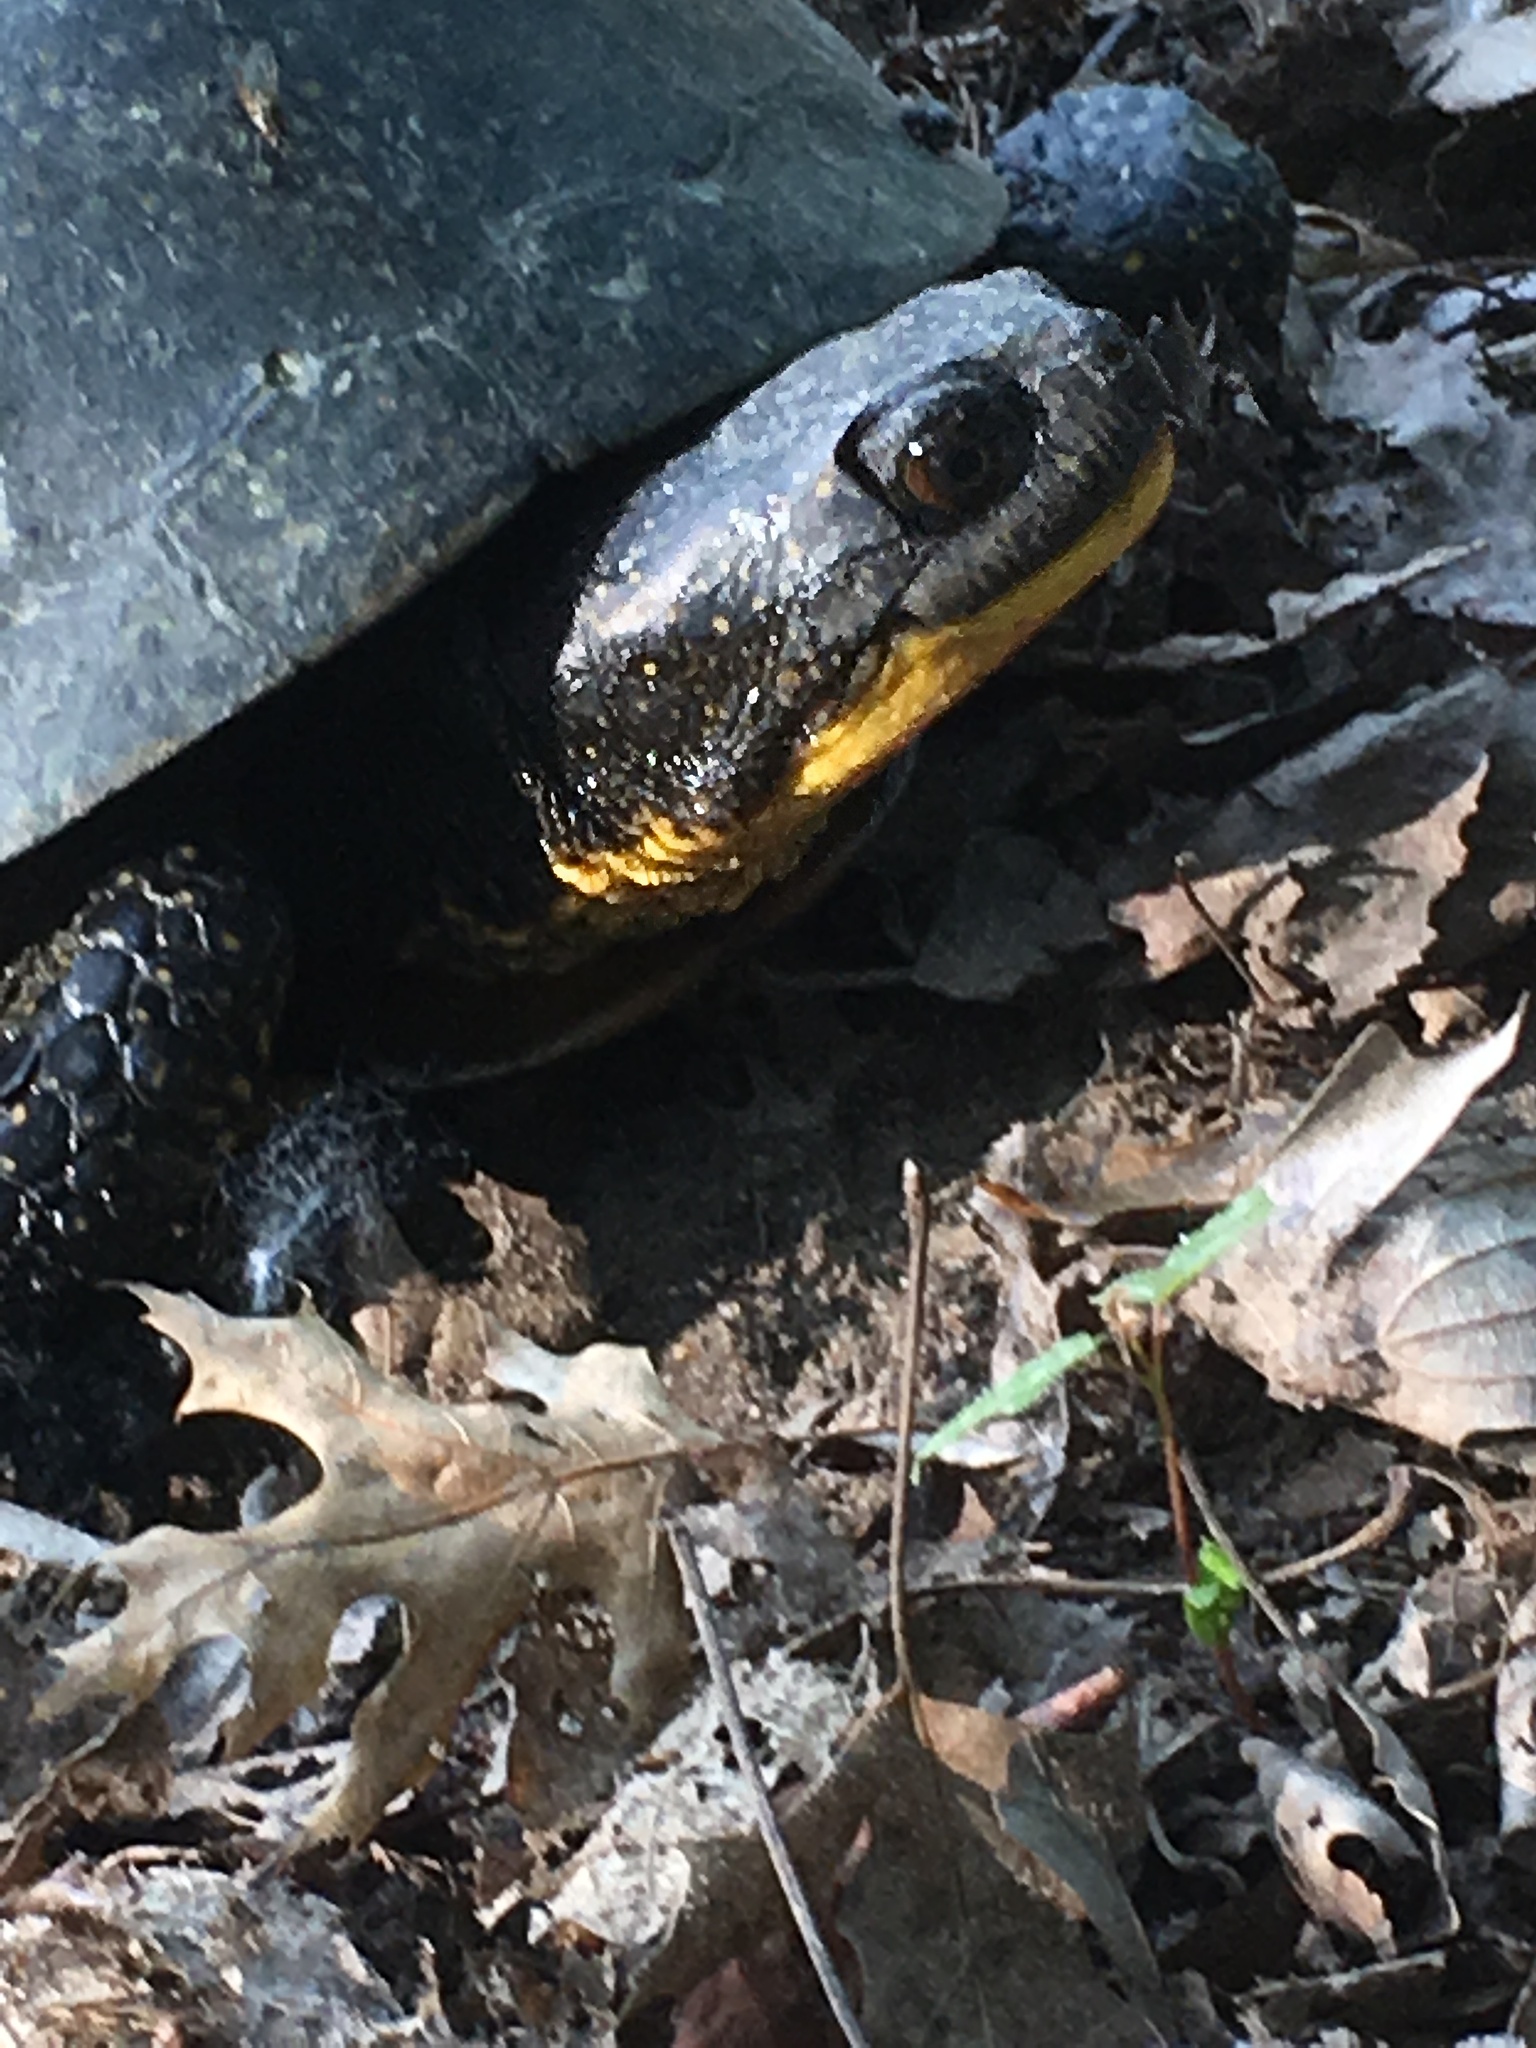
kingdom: Animalia
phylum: Chordata
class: Testudines
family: Emydidae
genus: Emys
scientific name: Emys blandingii
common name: Blanding's turtle
